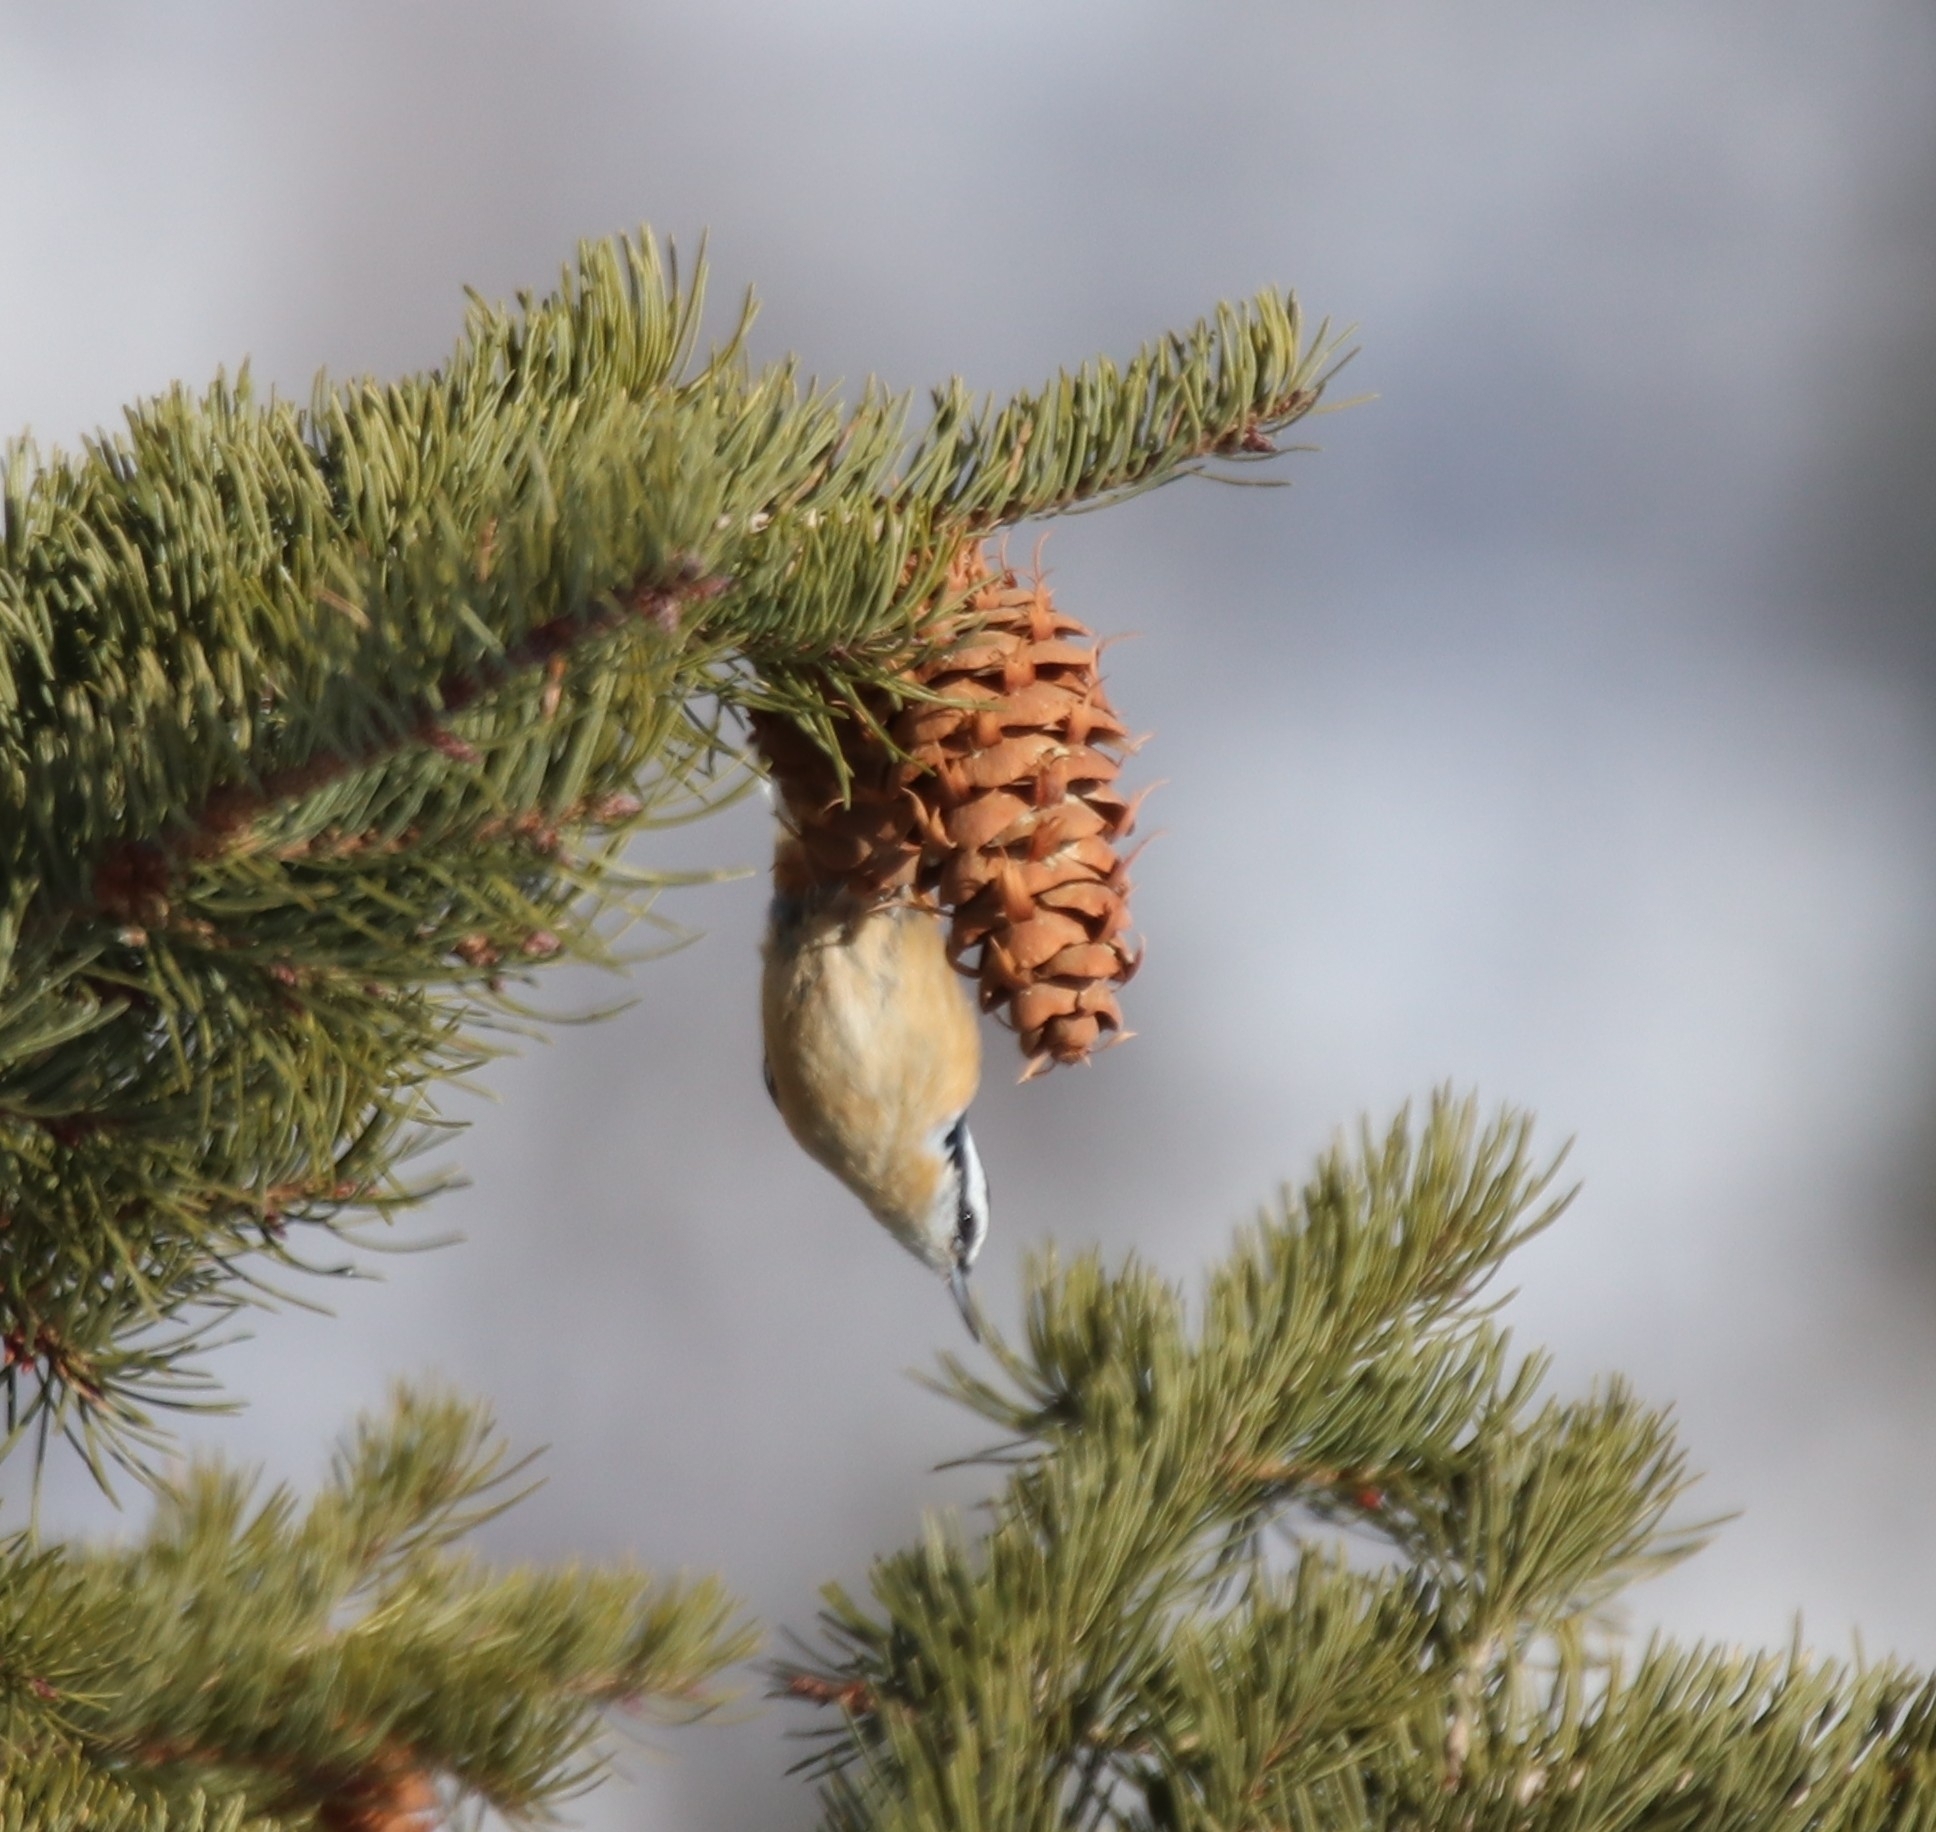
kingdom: Animalia
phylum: Chordata
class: Aves
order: Passeriformes
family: Sittidae
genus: Sitta
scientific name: Sitta canadensis
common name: Red-breasted nuthatch
